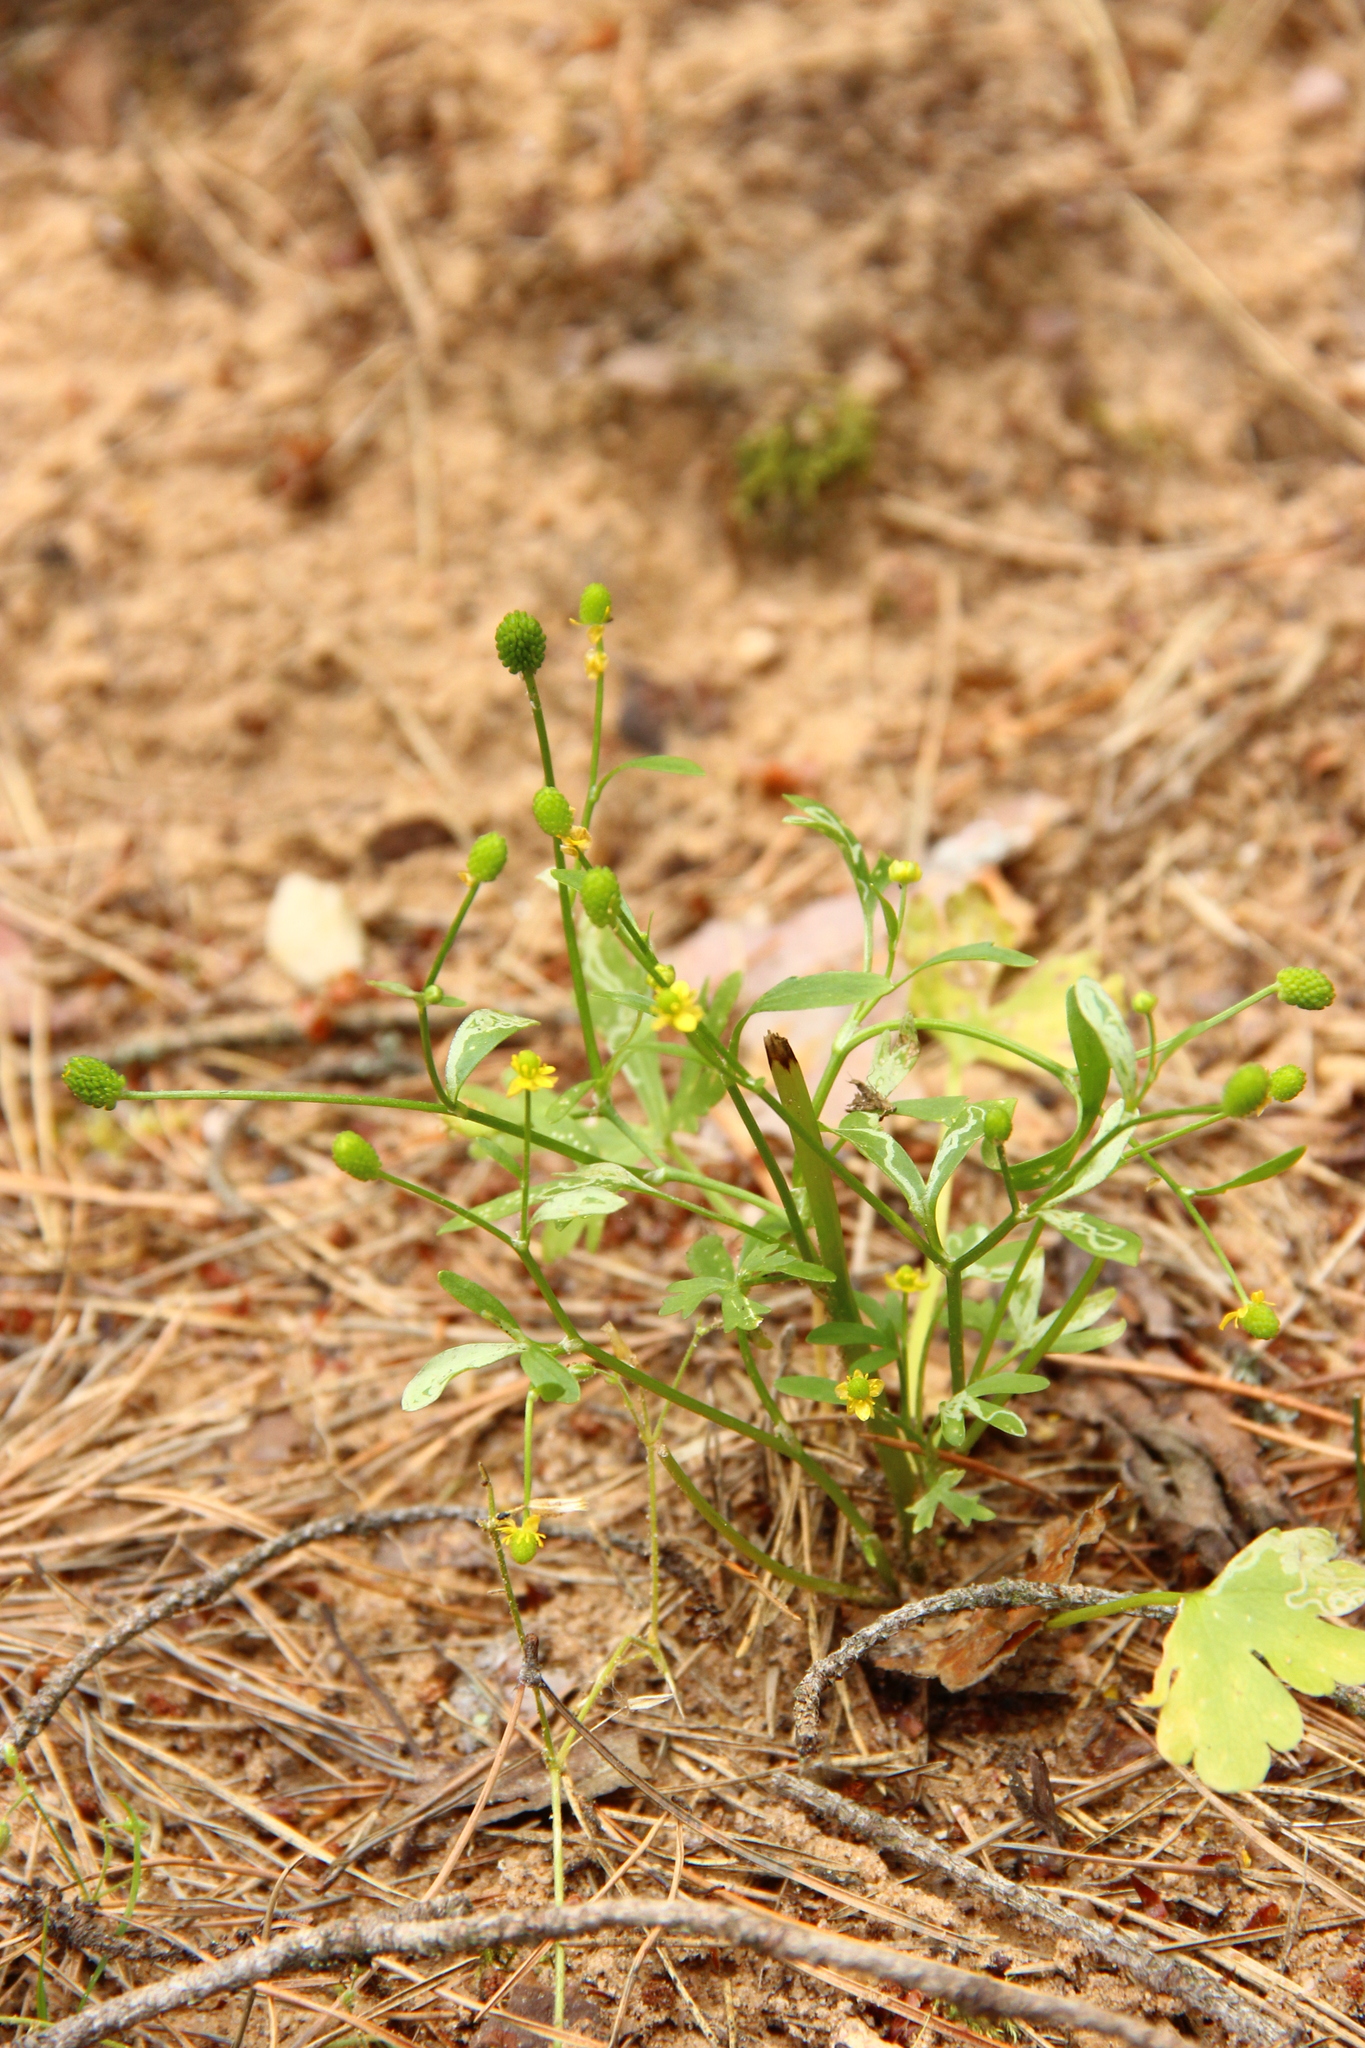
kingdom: Plantae
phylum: Tracheophyta
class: Magnoliopsida
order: Ranunculales
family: Ranunculaceae
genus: Ranunculus
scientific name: Ranunculus sceleratus
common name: Celery-leaved buttercup
